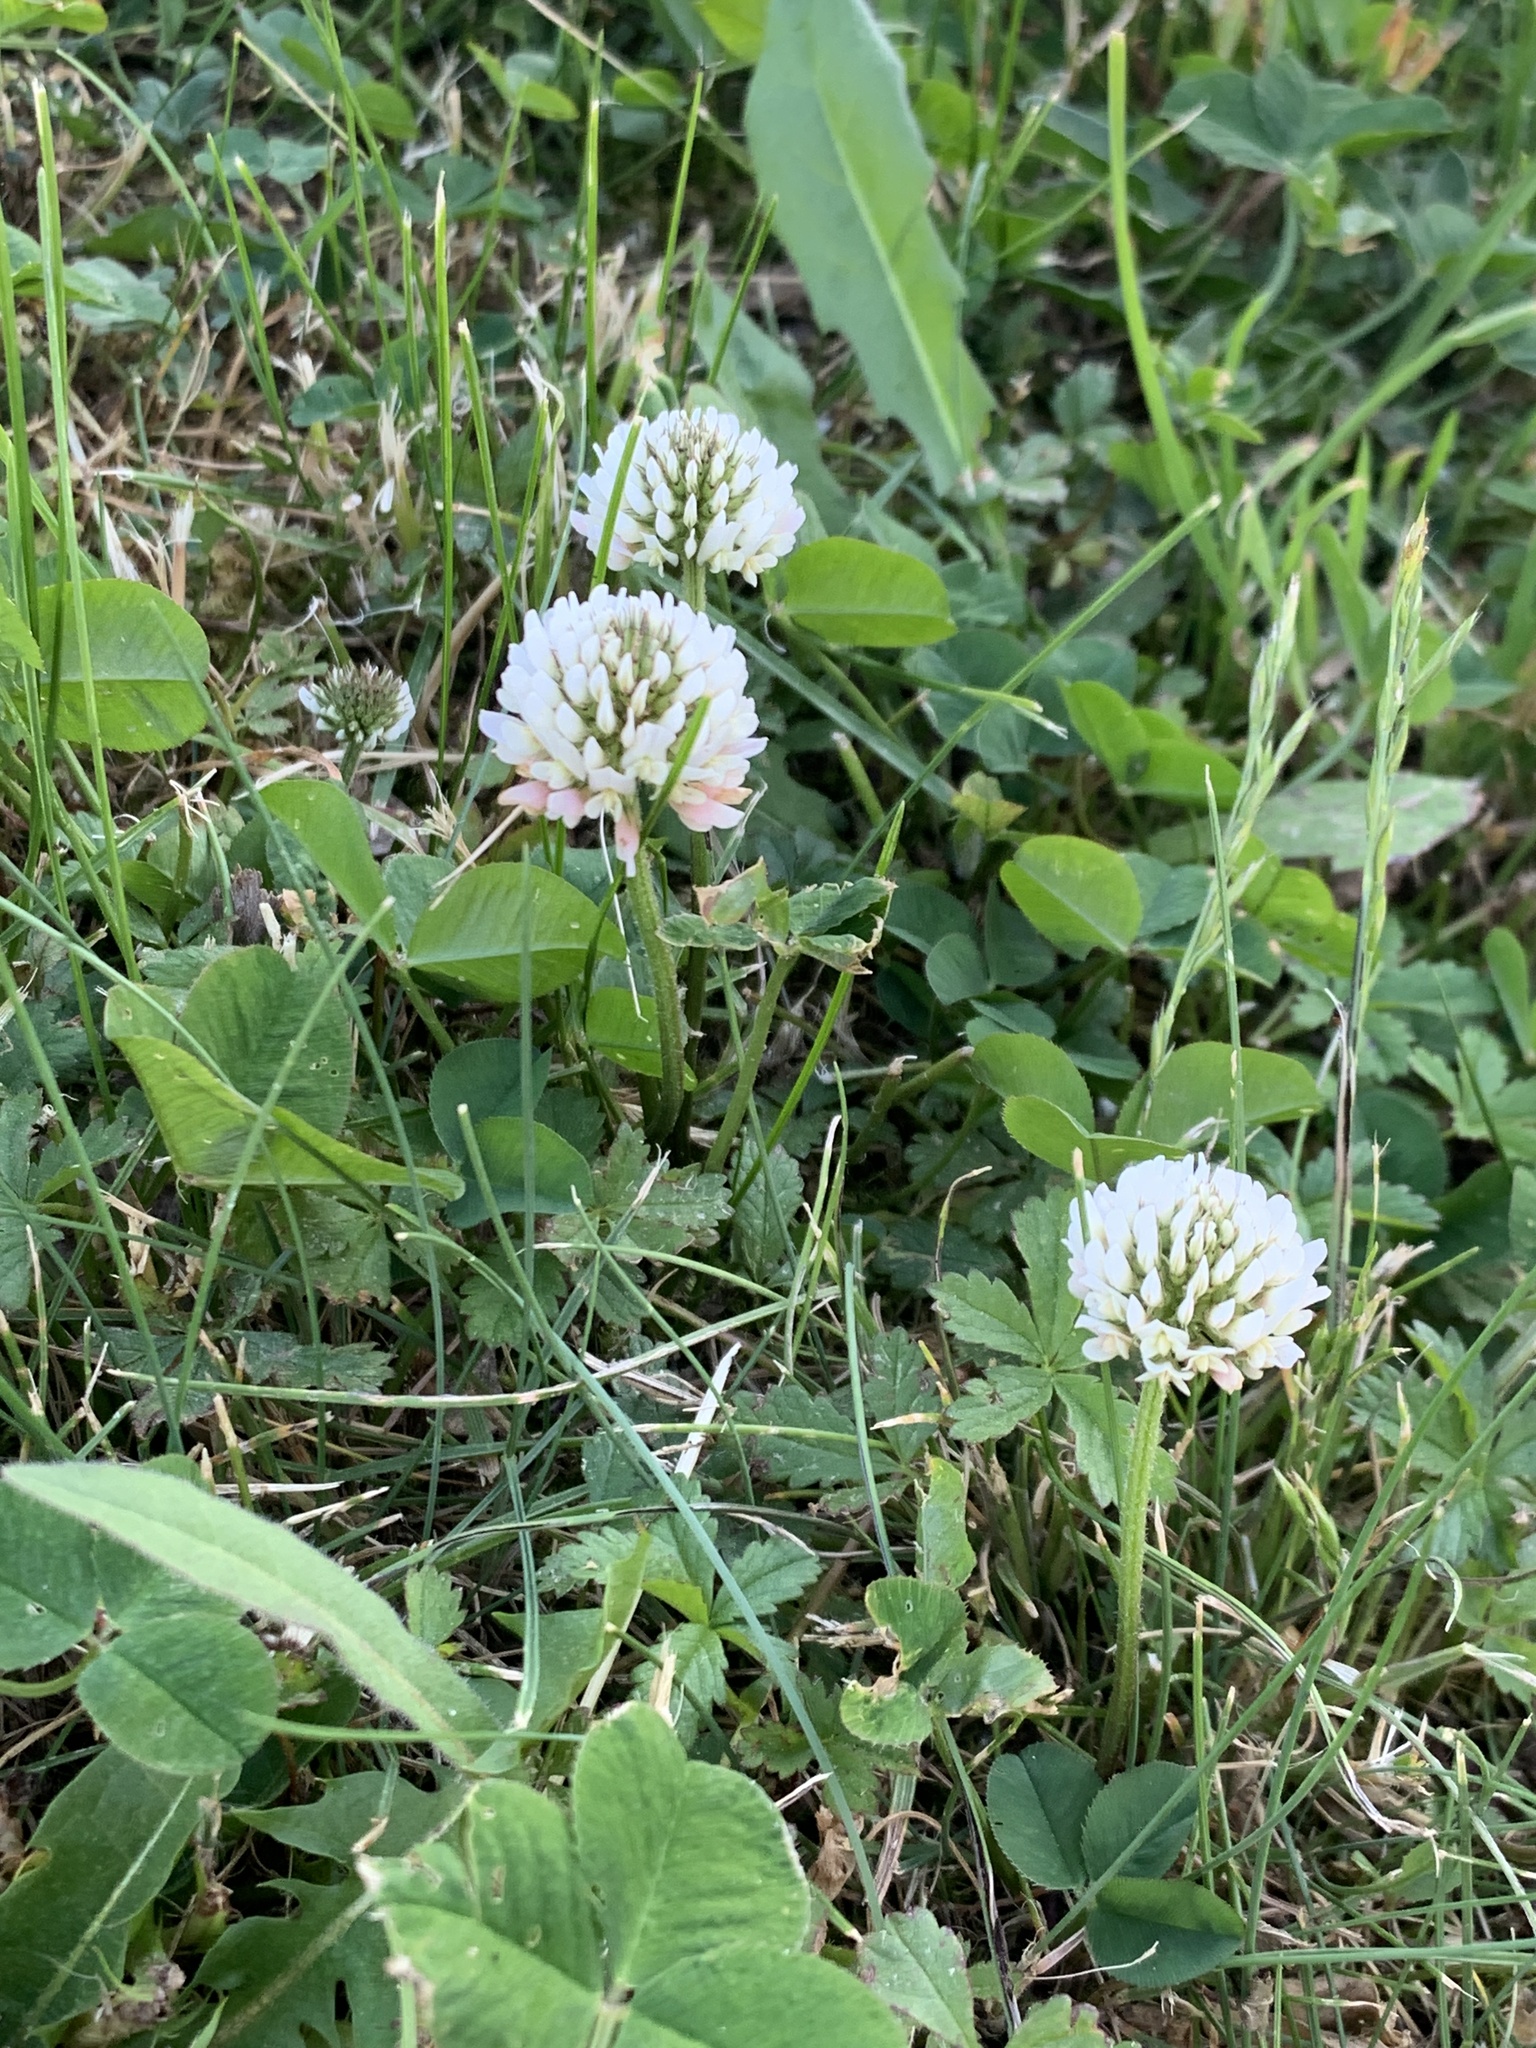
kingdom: Plantae
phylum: Tracheophyta
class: Magnoliopsida
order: Fabales
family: Fabaceae
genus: Trifolium
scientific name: Trifolium repens
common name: White clover
